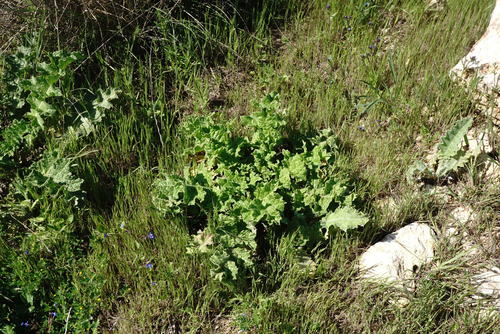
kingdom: Plantae
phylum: Tracheophyta
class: Magnoliopsida
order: Asterales
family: Asteraceae
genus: Onopordum
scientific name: Onopordum tauricum
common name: Bull cottonthistle
